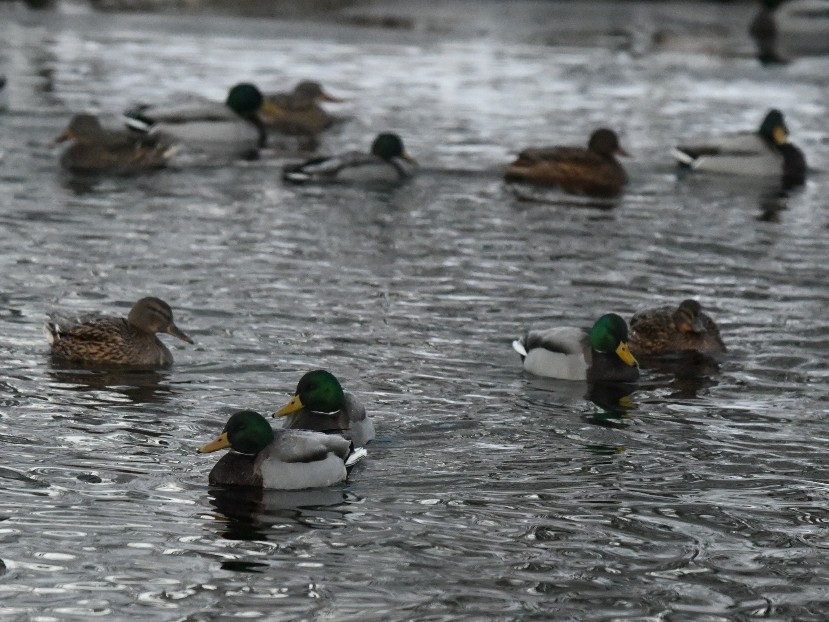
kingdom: Animalia
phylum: Chordata
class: Aves
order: Anseriformes
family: Anatidae
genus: Anas
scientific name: Anas platyrhynchos
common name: Mallard
